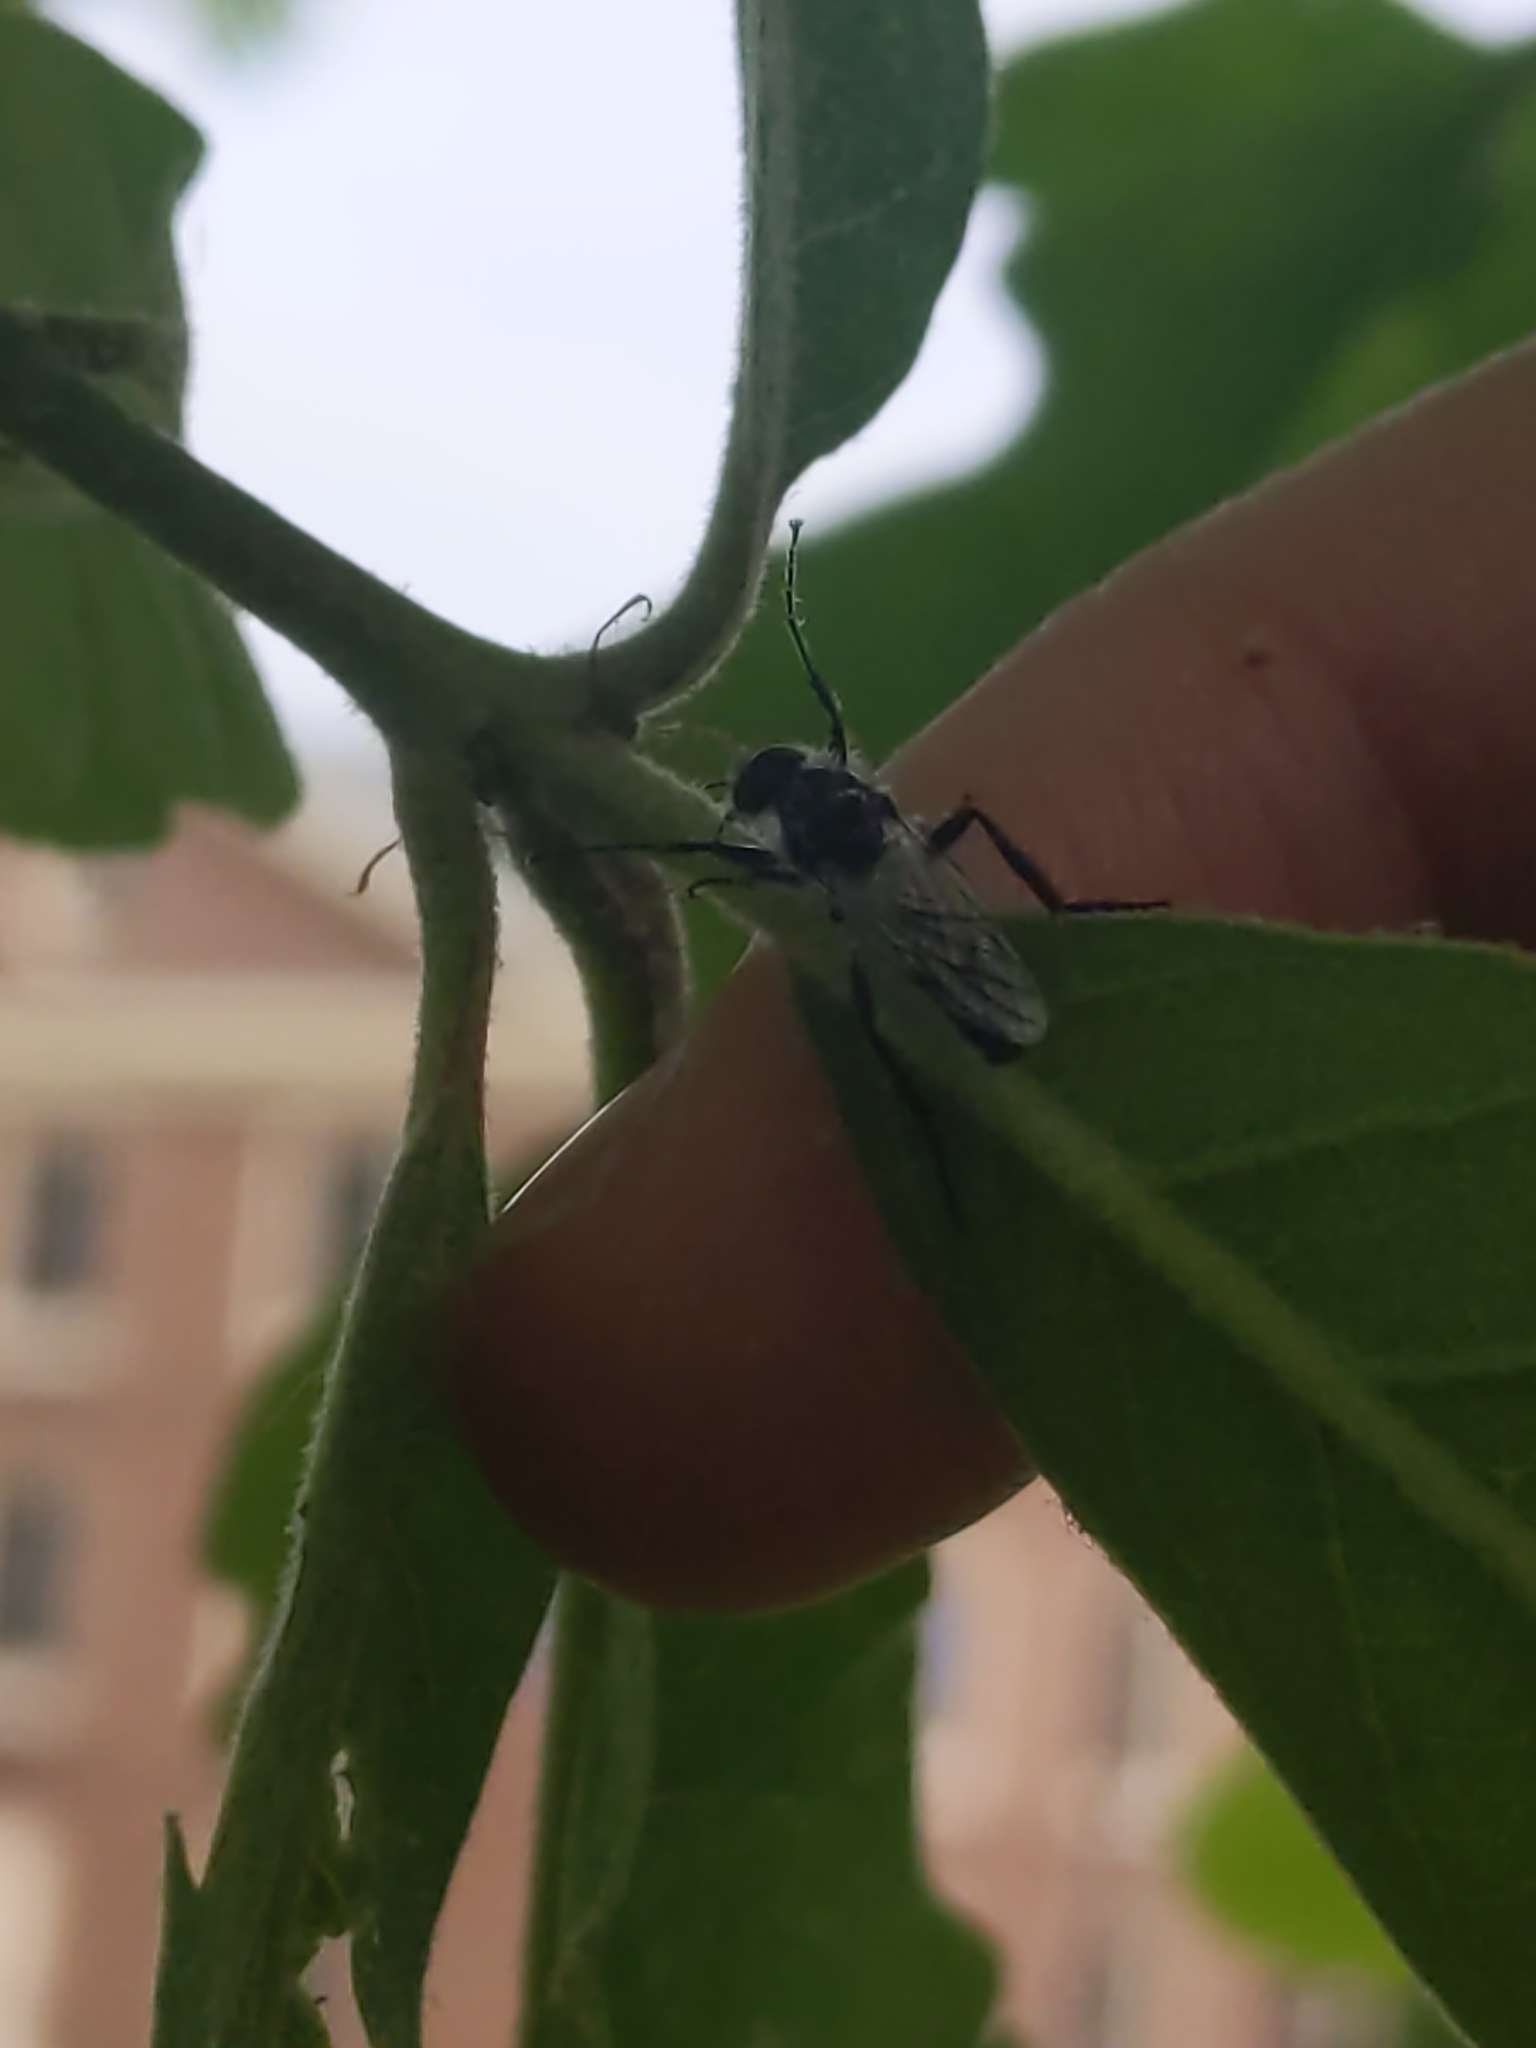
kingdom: Animalia
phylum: Arthropoda
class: Insecta
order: Diptera
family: Bibionidae
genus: Bibio
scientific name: Bibio albipennis
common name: White-winged march fly
